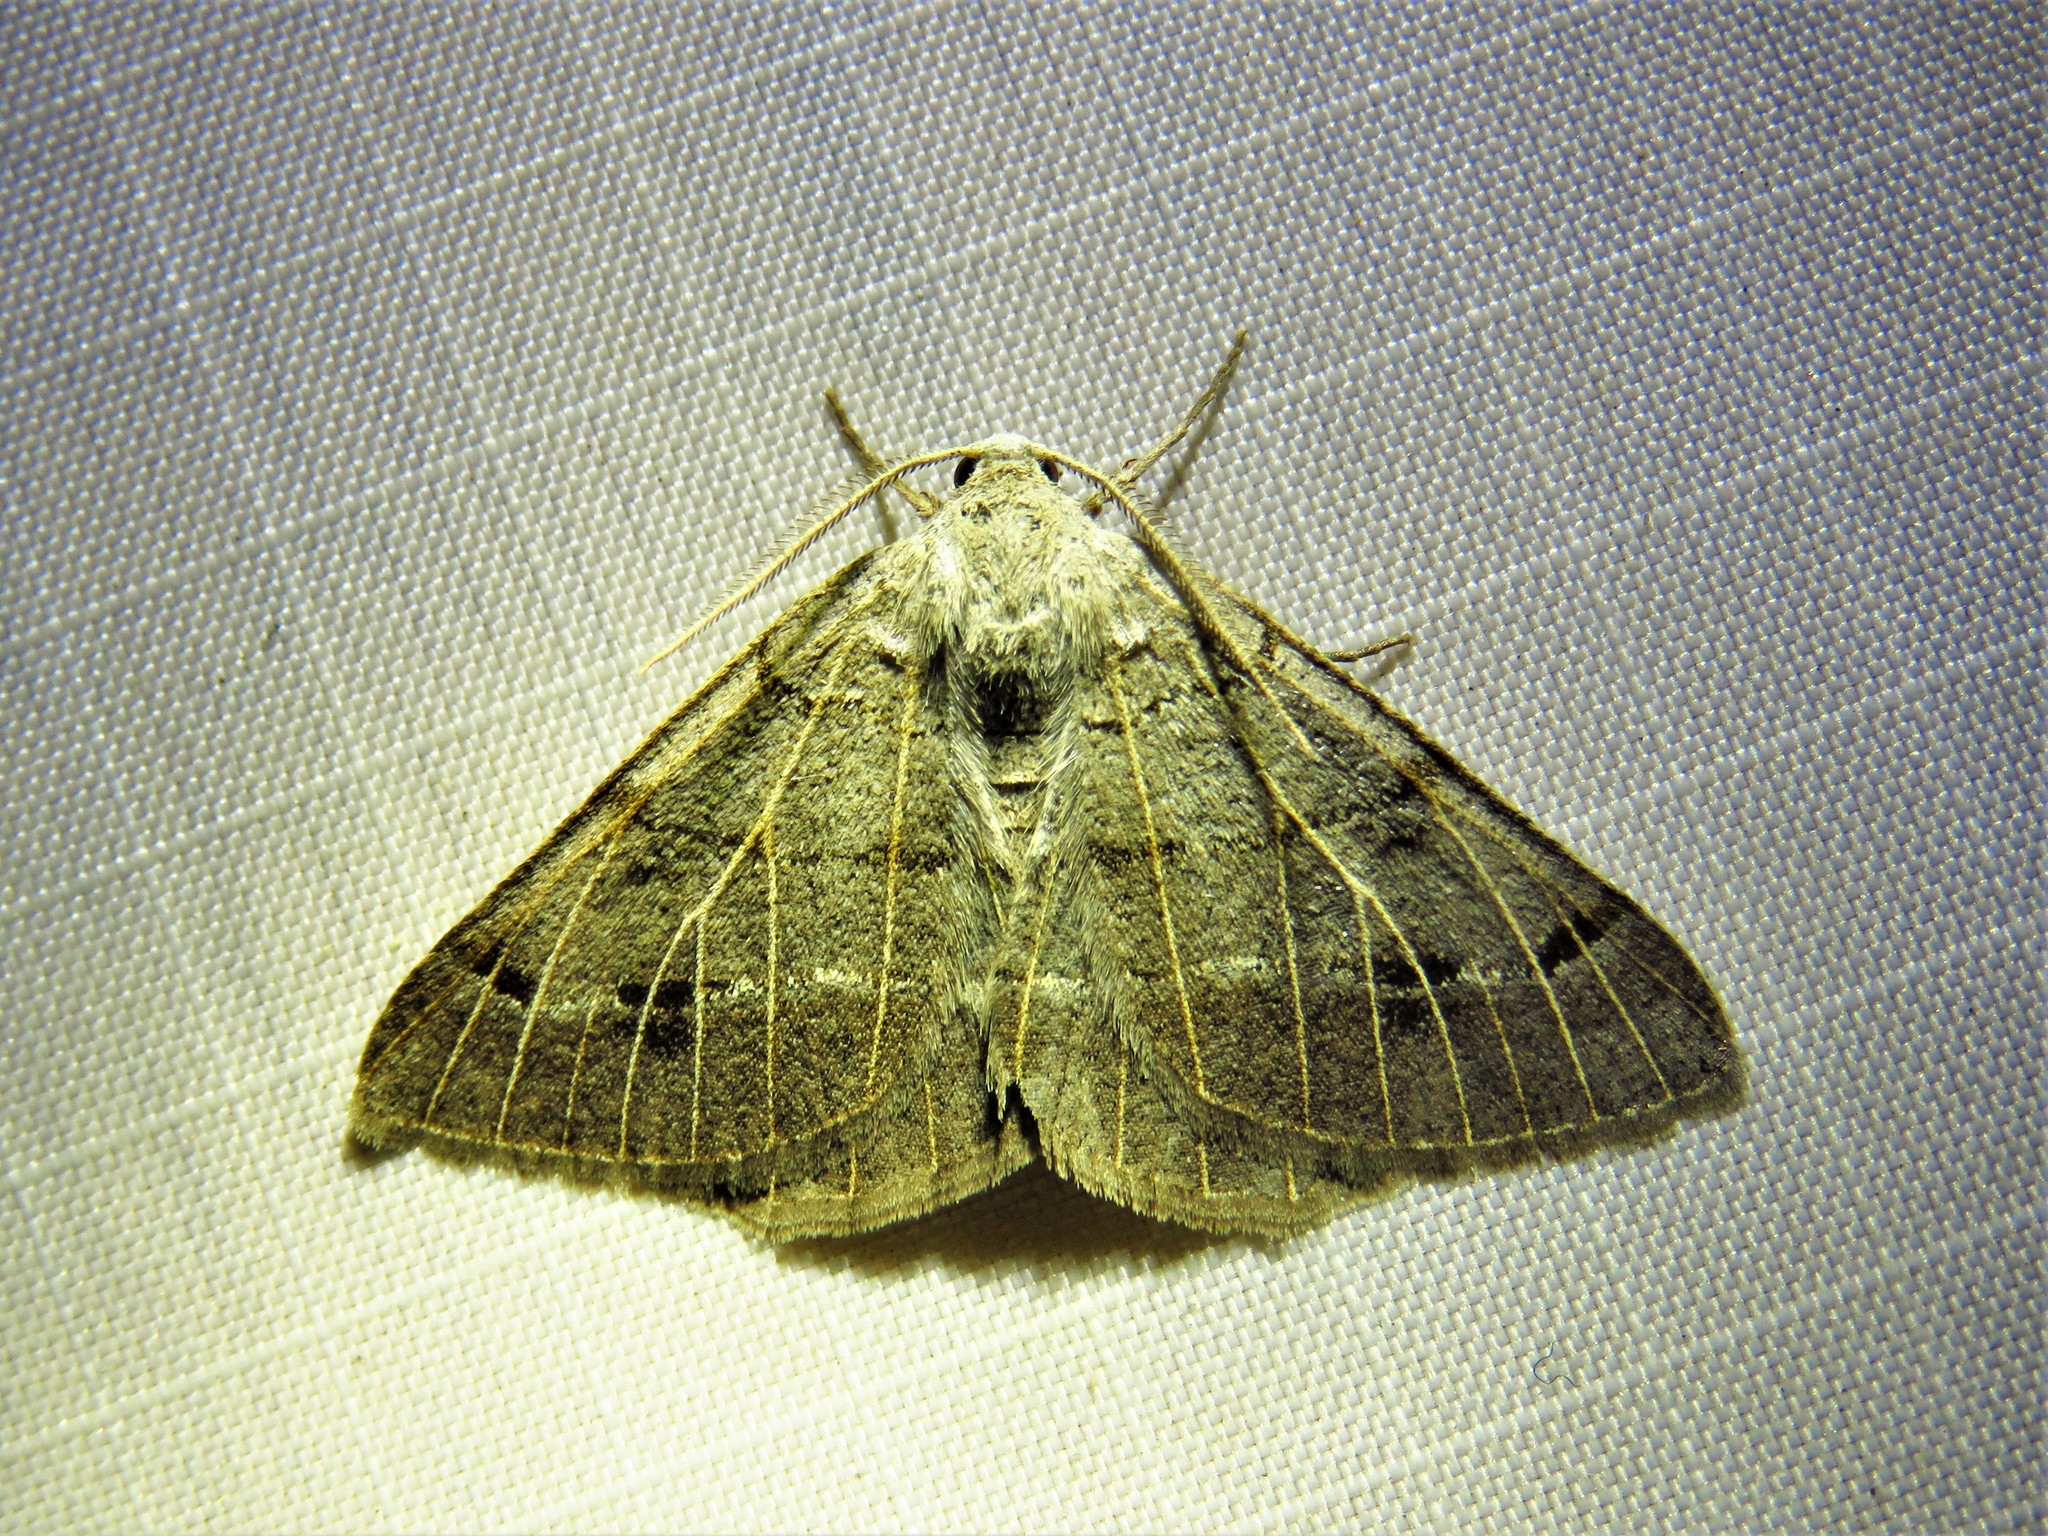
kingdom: Animalia
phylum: Arthropoda
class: Insecta
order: Lepidoptera
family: Geometridae
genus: Isturgia
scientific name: Isturgia dislocaria
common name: Pale-viened enconista
